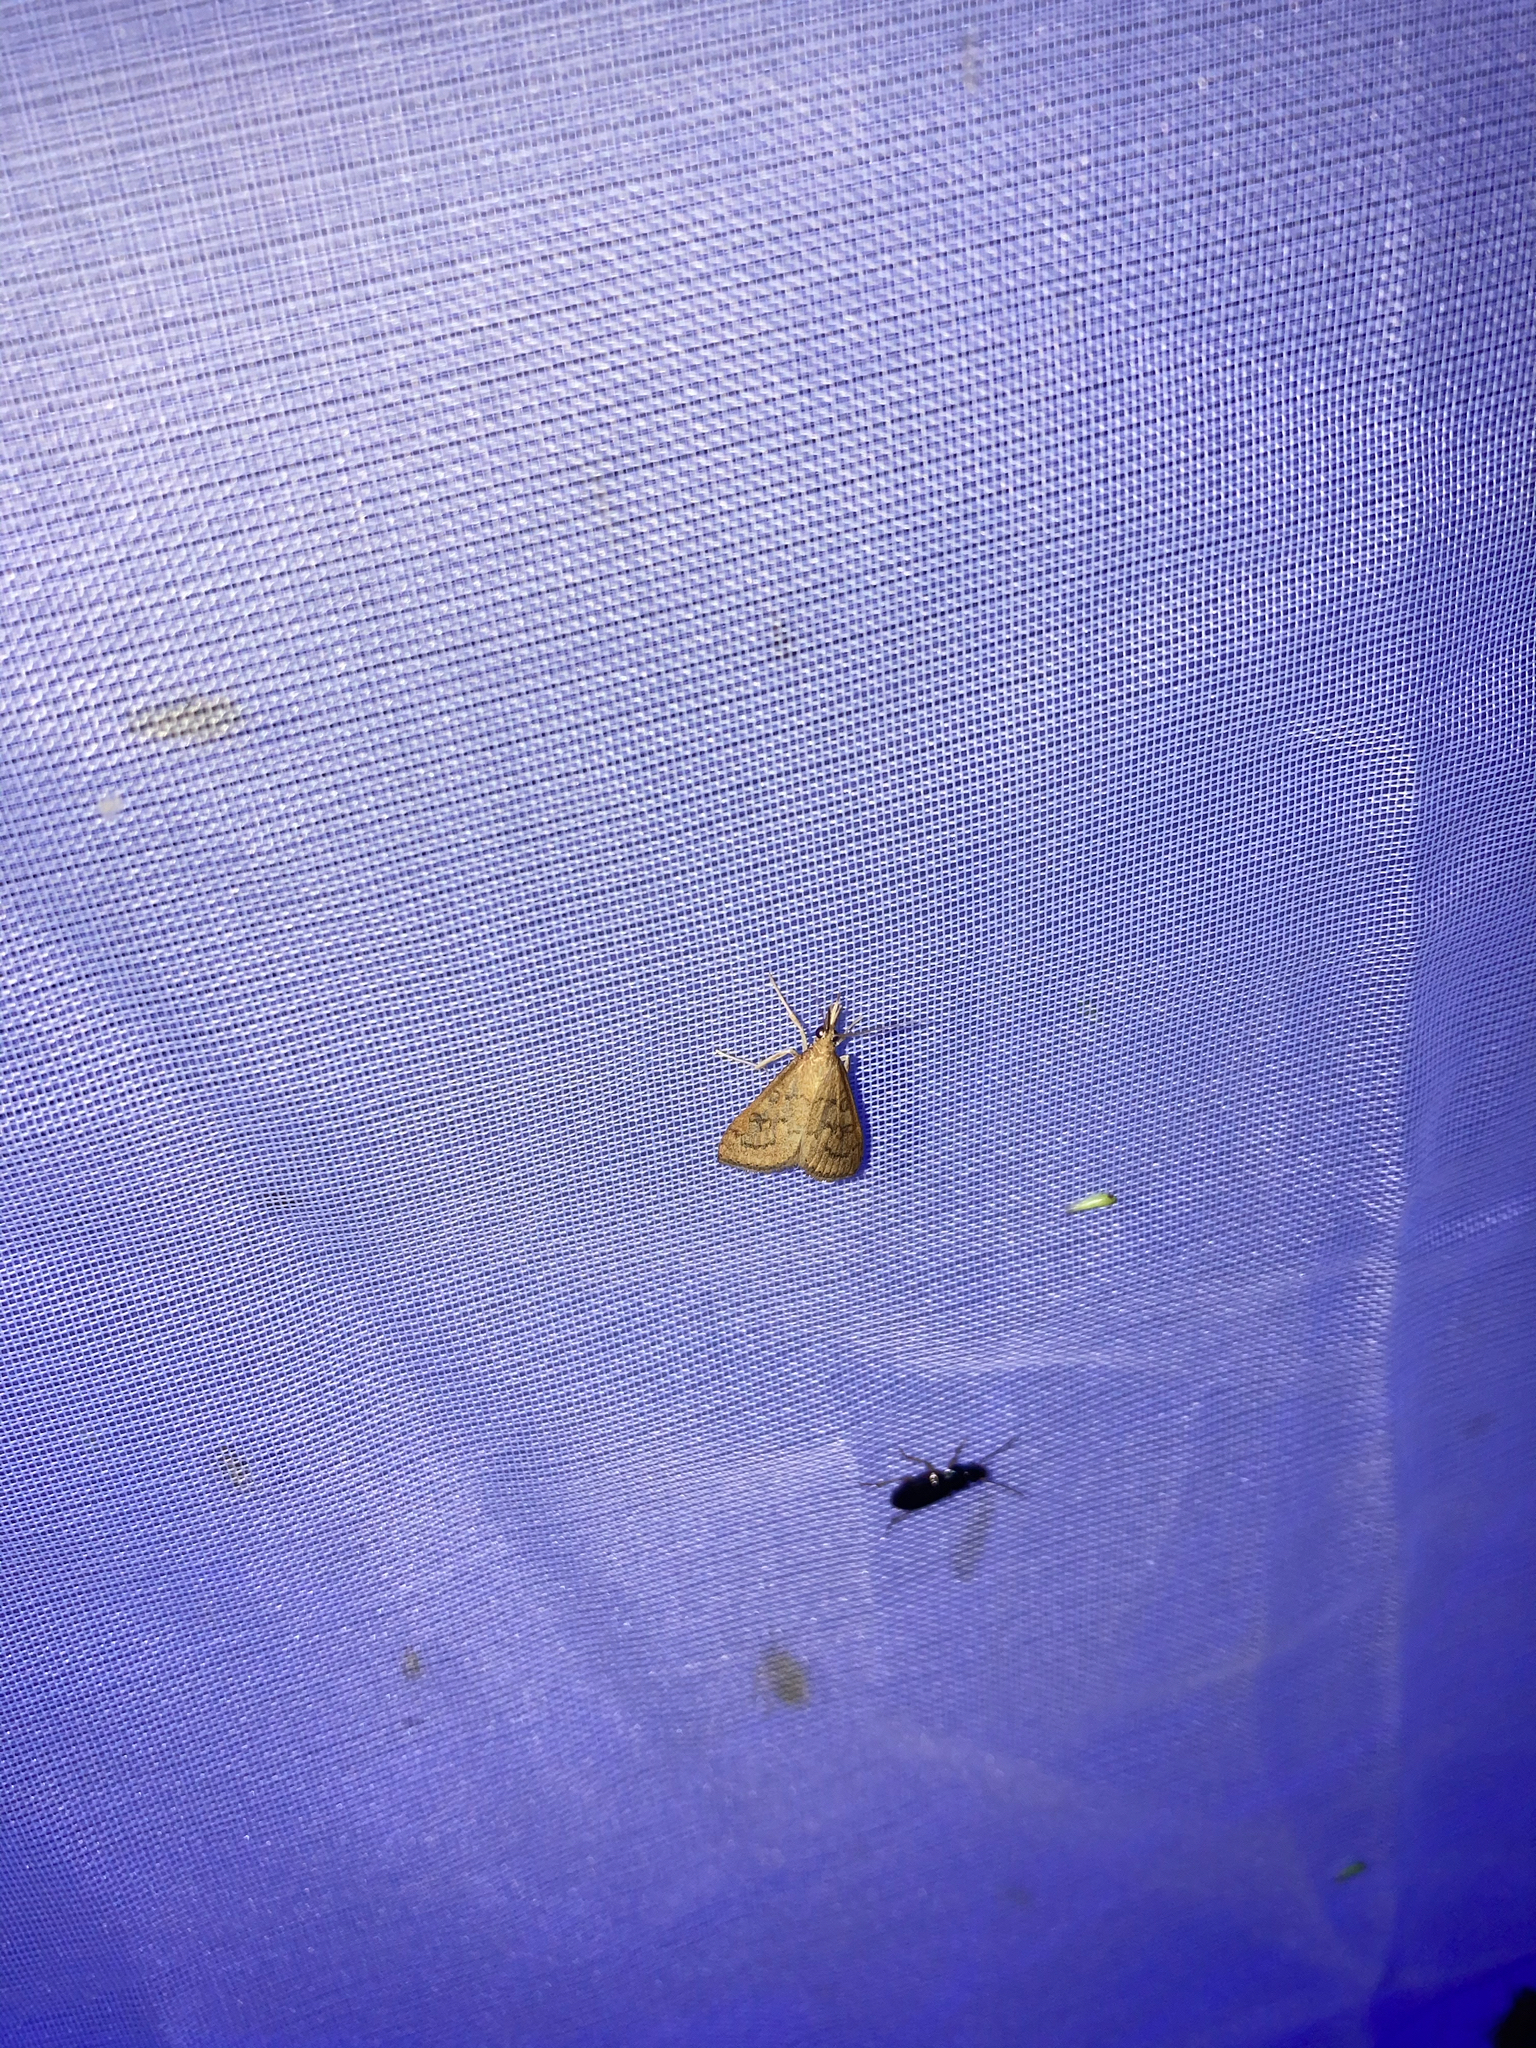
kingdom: Animalia
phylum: Arthropoda
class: Insecta
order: Lepidoptera
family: Crambidae
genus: Udea
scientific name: Udea rubigalis
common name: Celery leaftier moth
